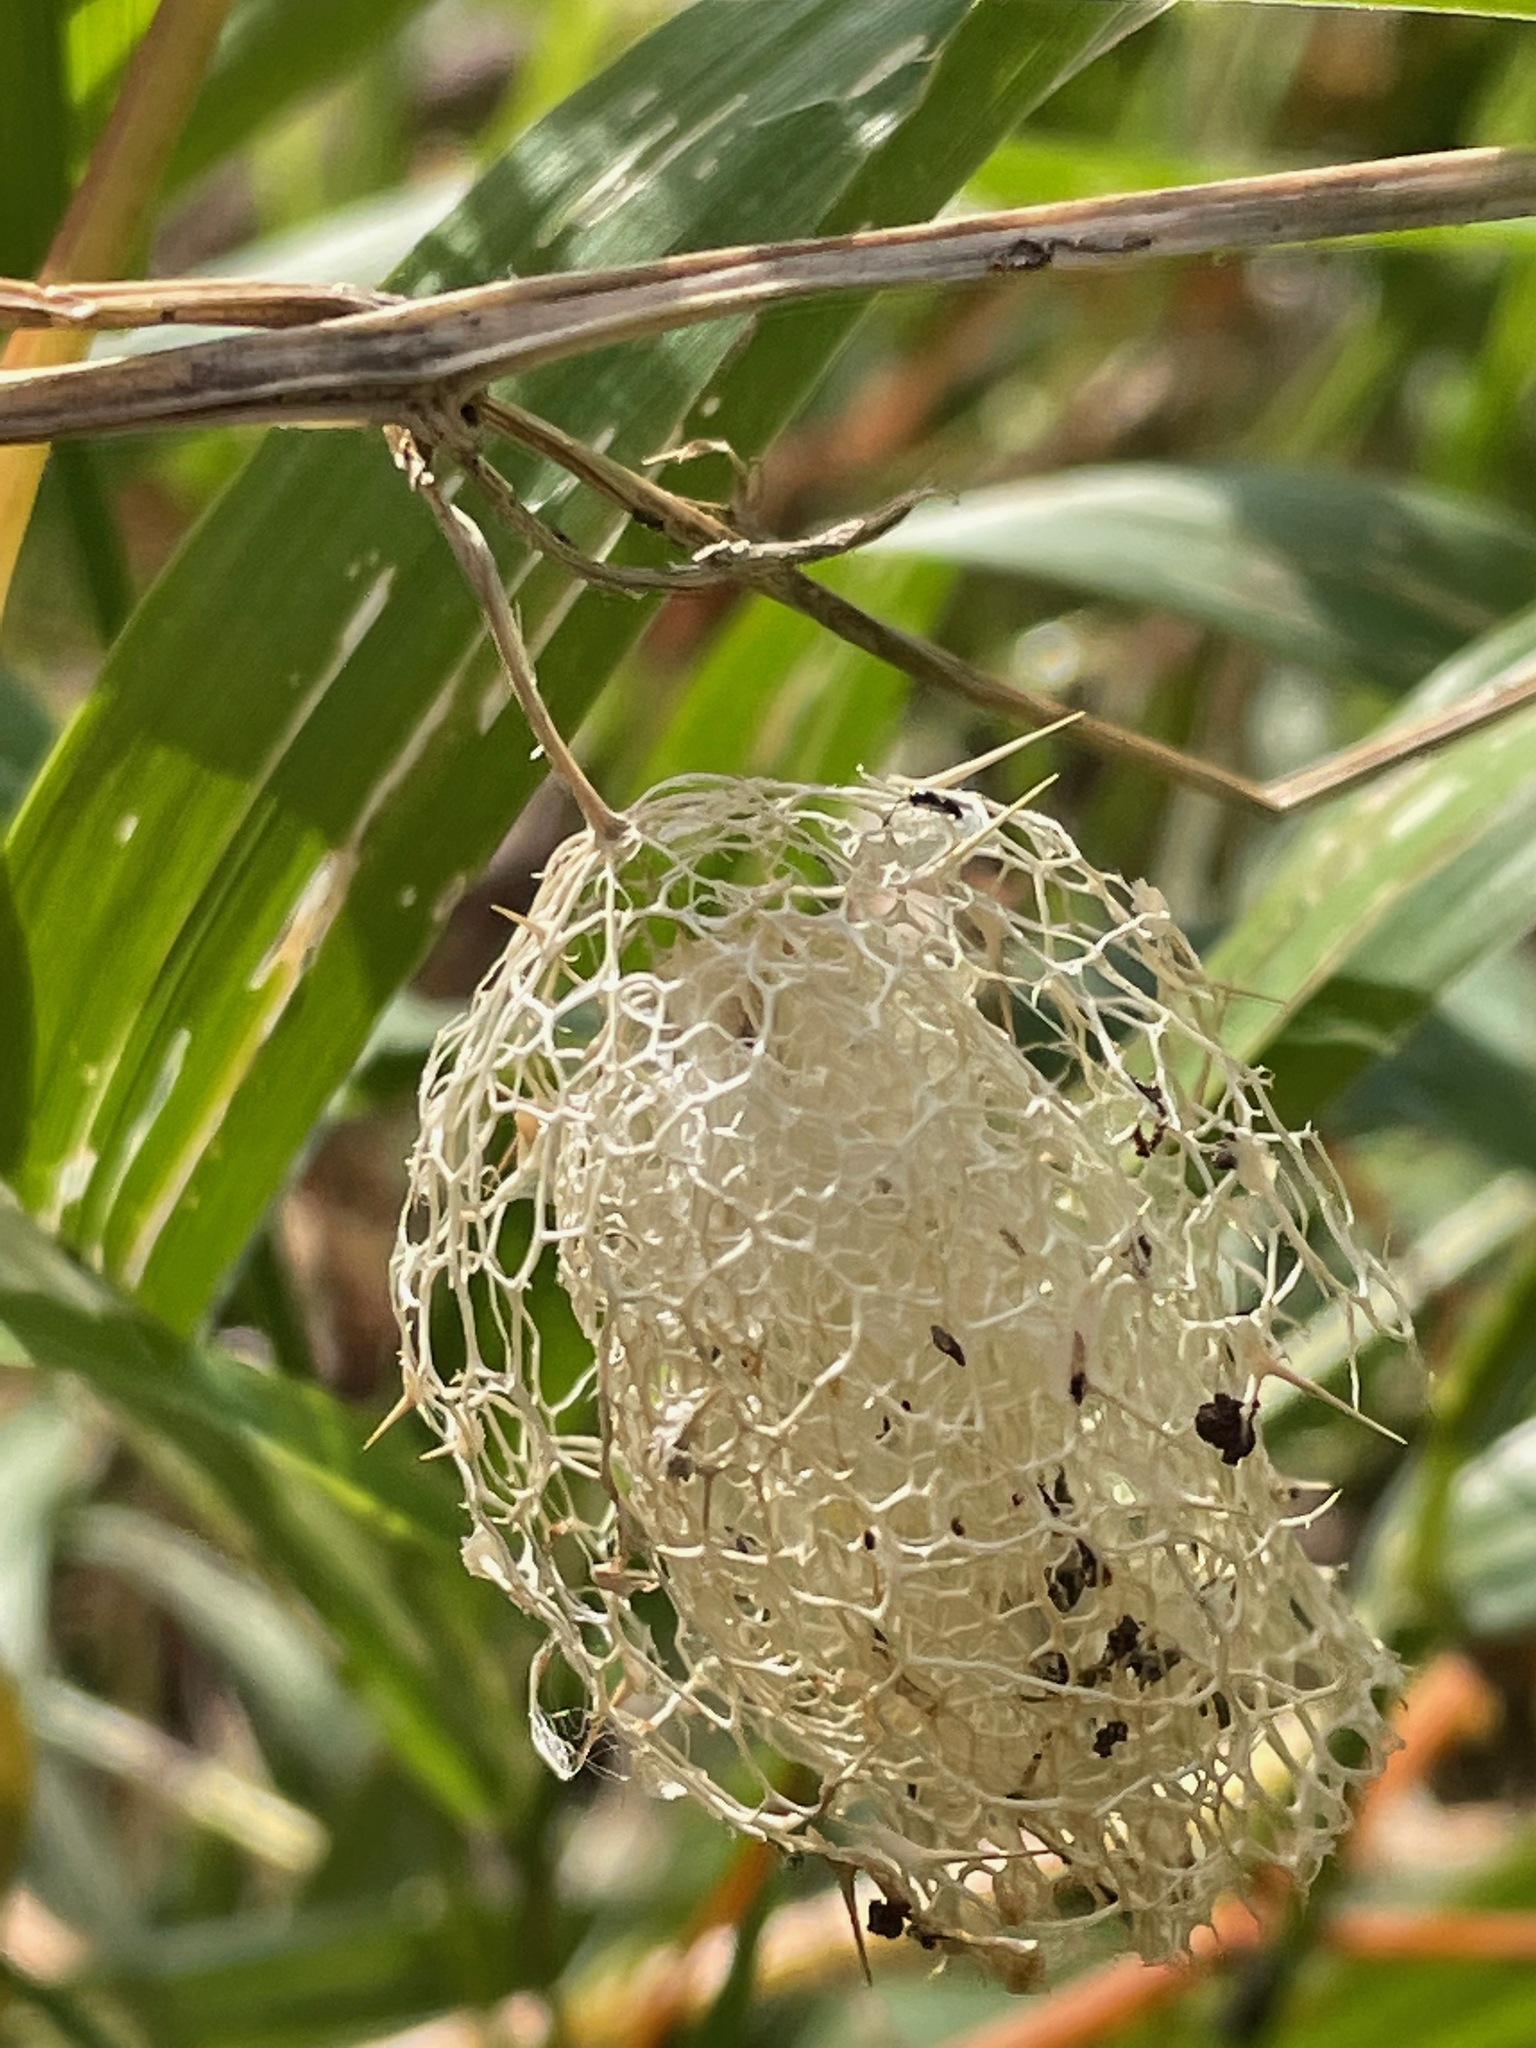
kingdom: Plantae
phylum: Tracheophyta
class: Magnoliopsida
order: Cucurbitales
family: Cucurbitaceae
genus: Echinocystis
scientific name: Echinocystis lobata
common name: Wild cucumber
